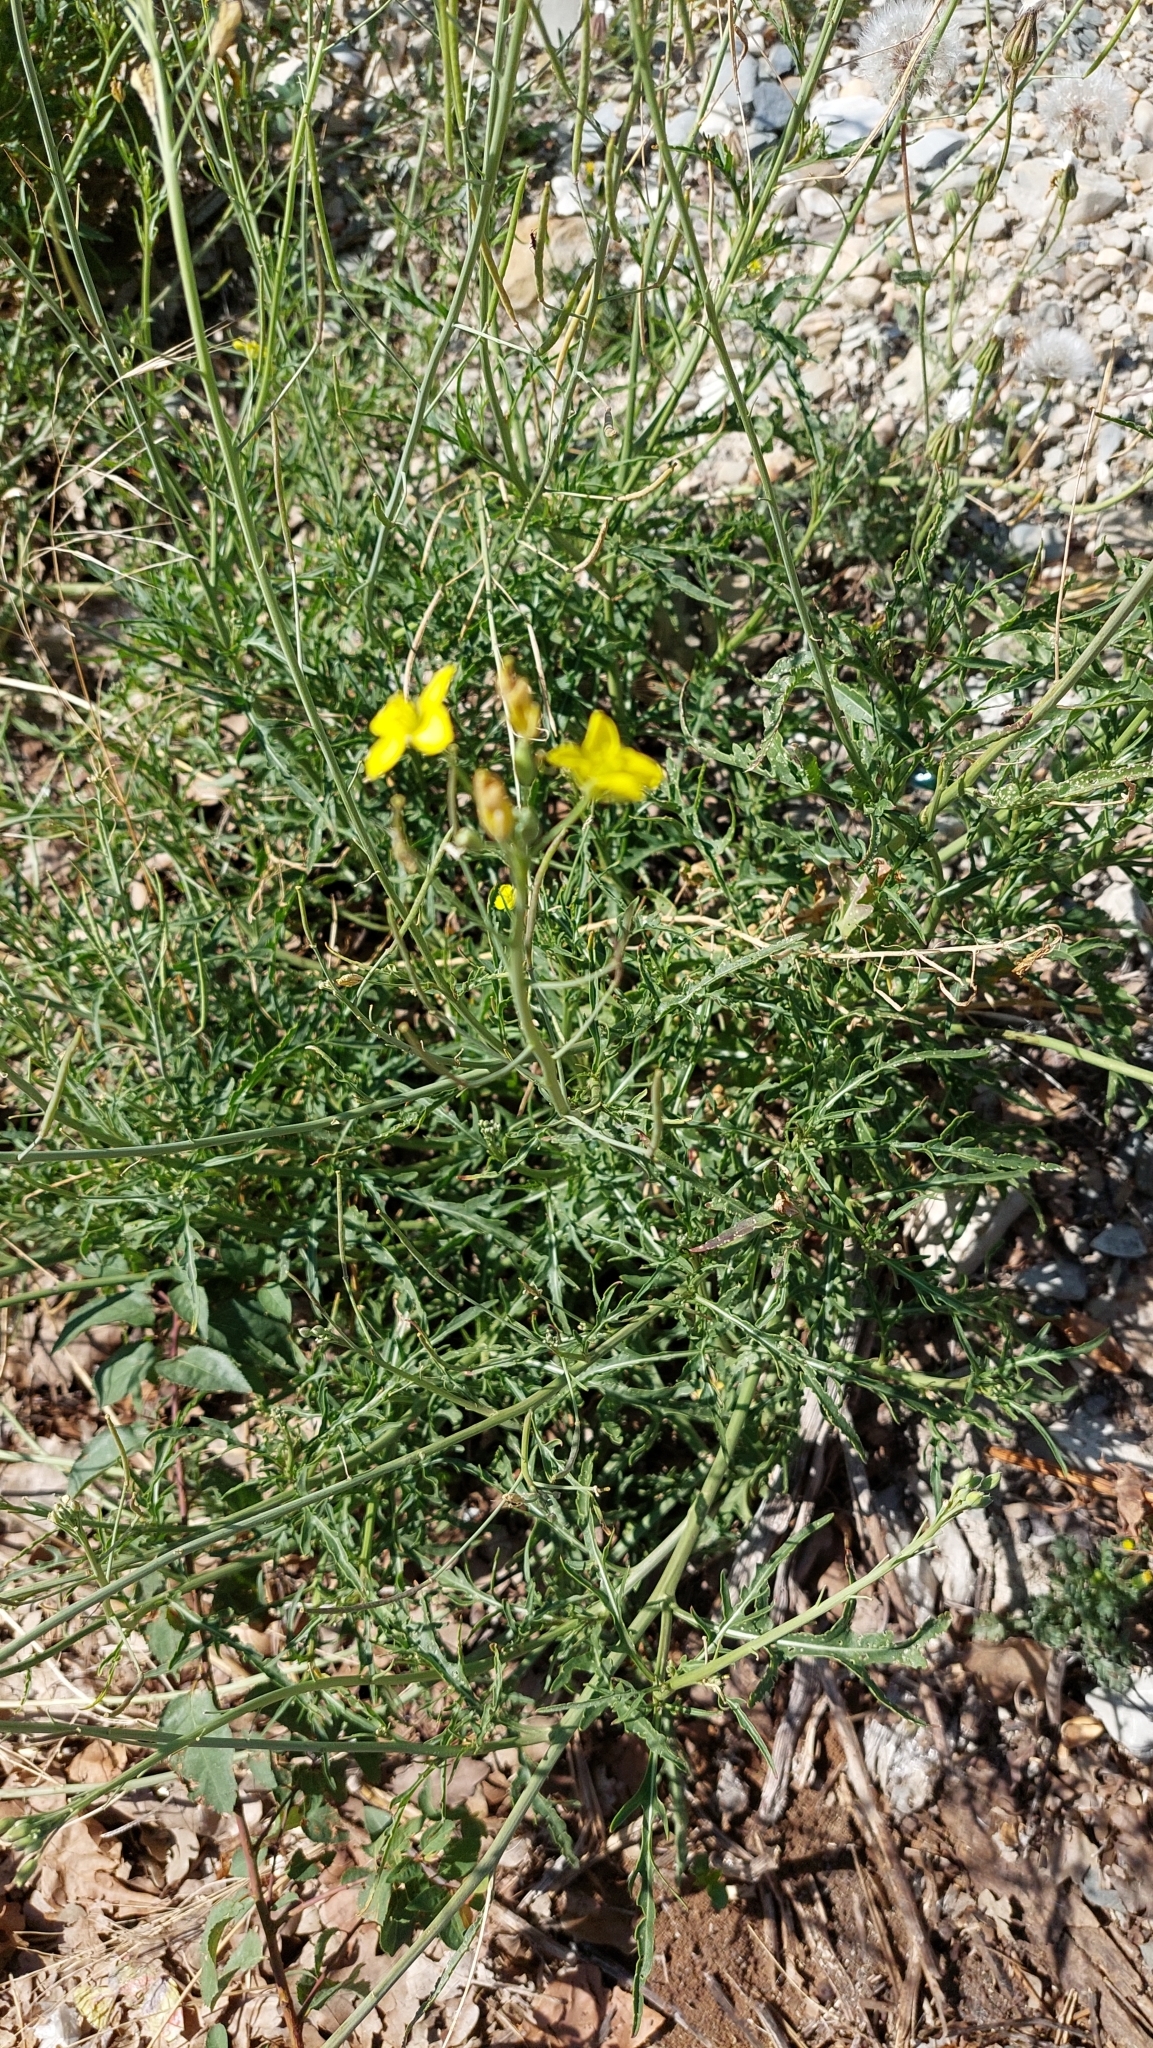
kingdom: Plantae
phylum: Tracheophyta
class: Magnoliopsida
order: Brassicales
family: Brassicaceae
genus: Diplotaxis
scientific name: Diplotaxis tenuifolia
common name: Perennial wall-rocket
